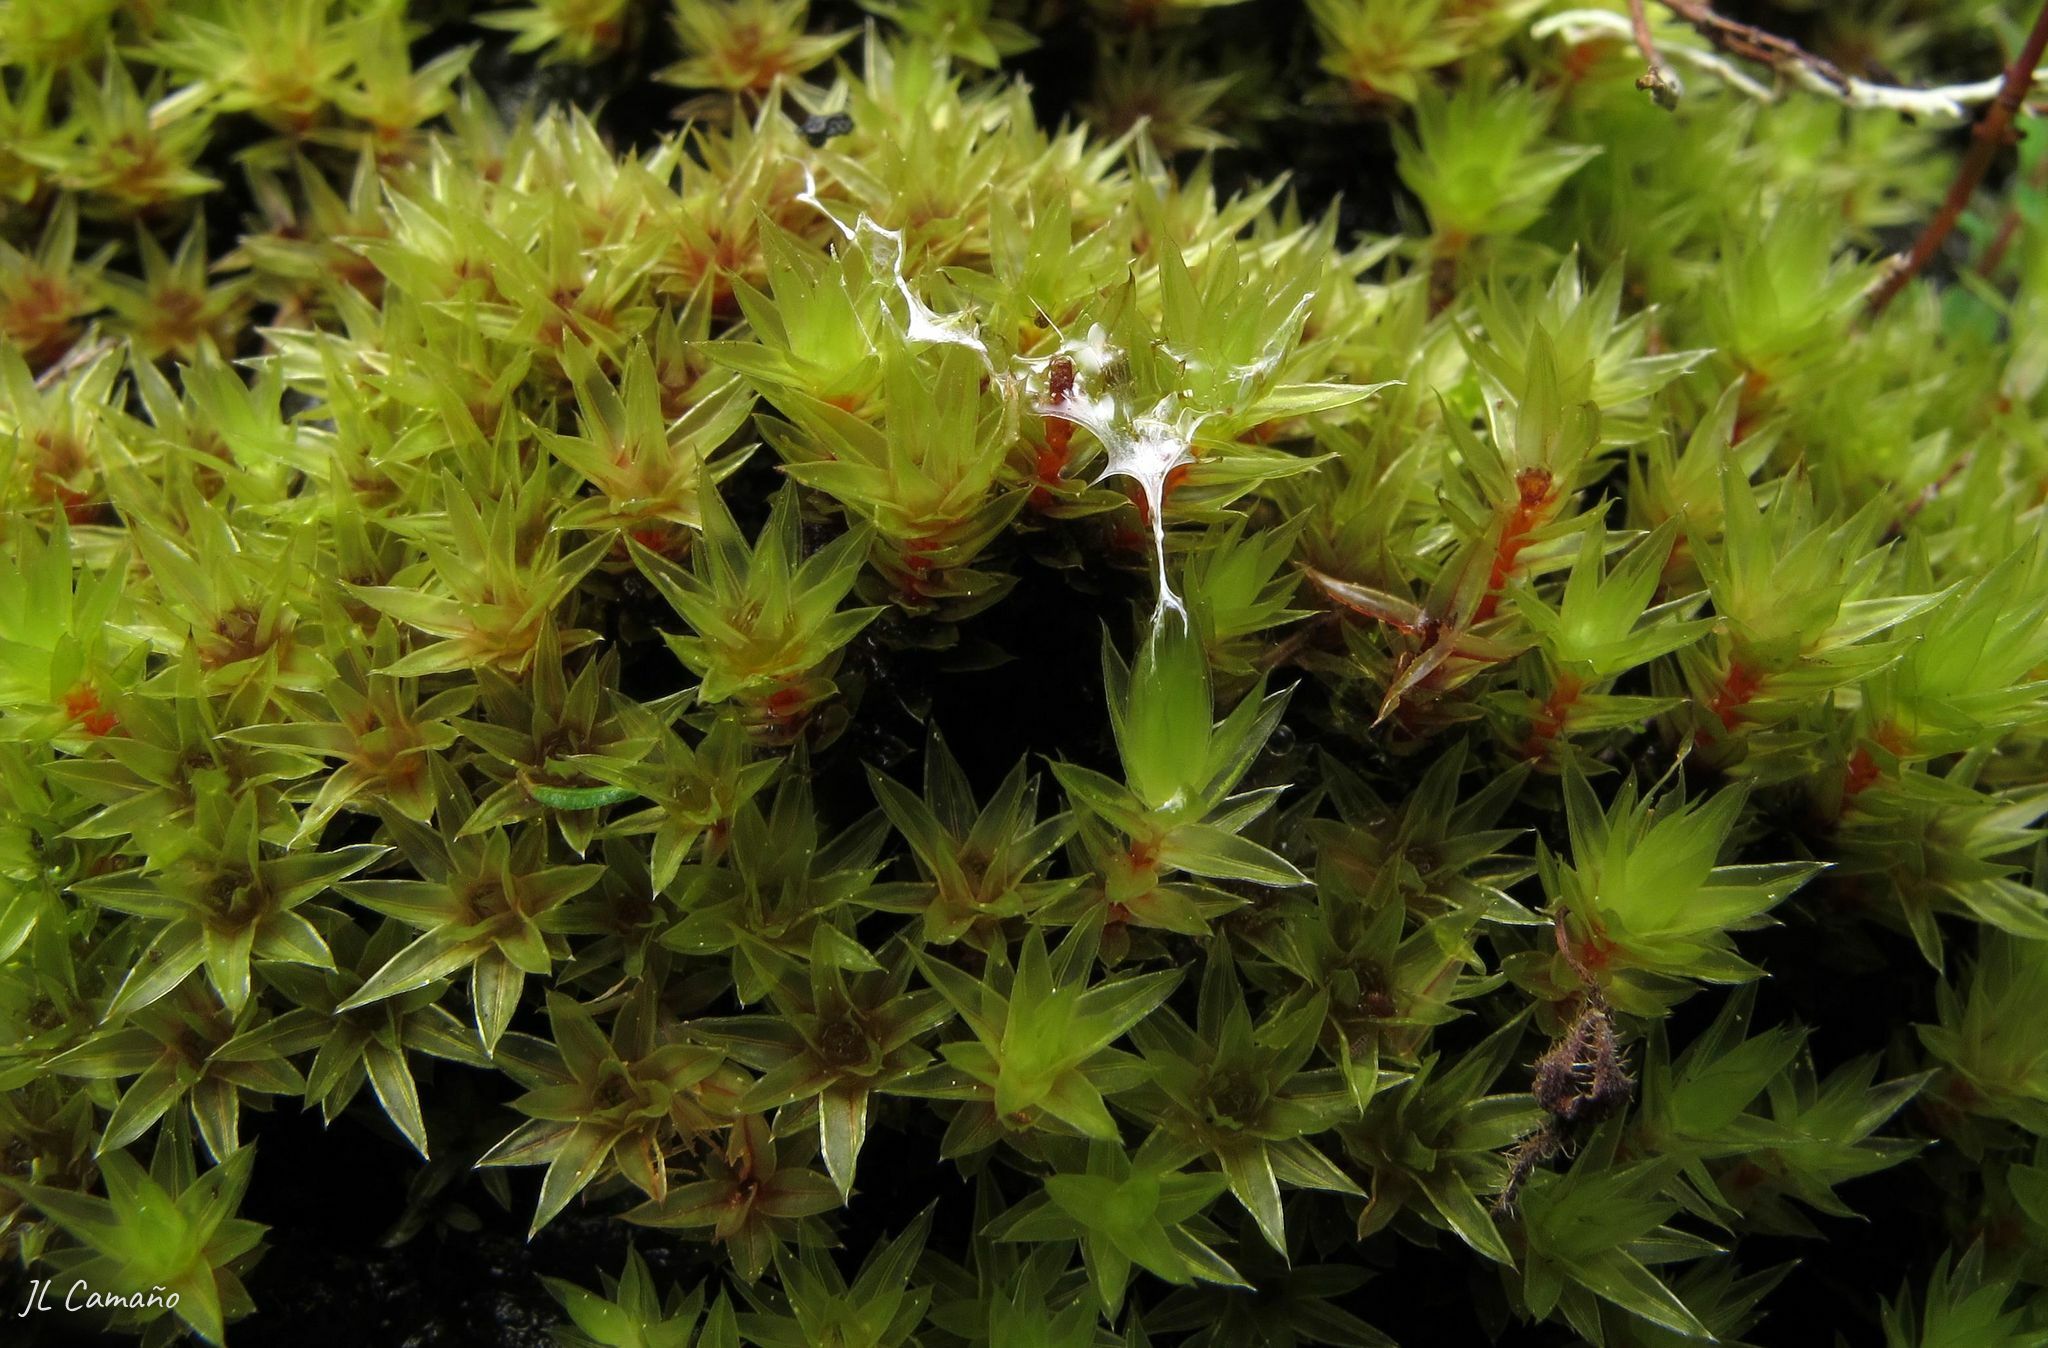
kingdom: Plantae
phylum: Bryophyta
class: Bryopsida
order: Bryales
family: Bryaceae
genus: Ptychostomum
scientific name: Ptychostomum pseudotriquetrum
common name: Long-leaved thread moss
